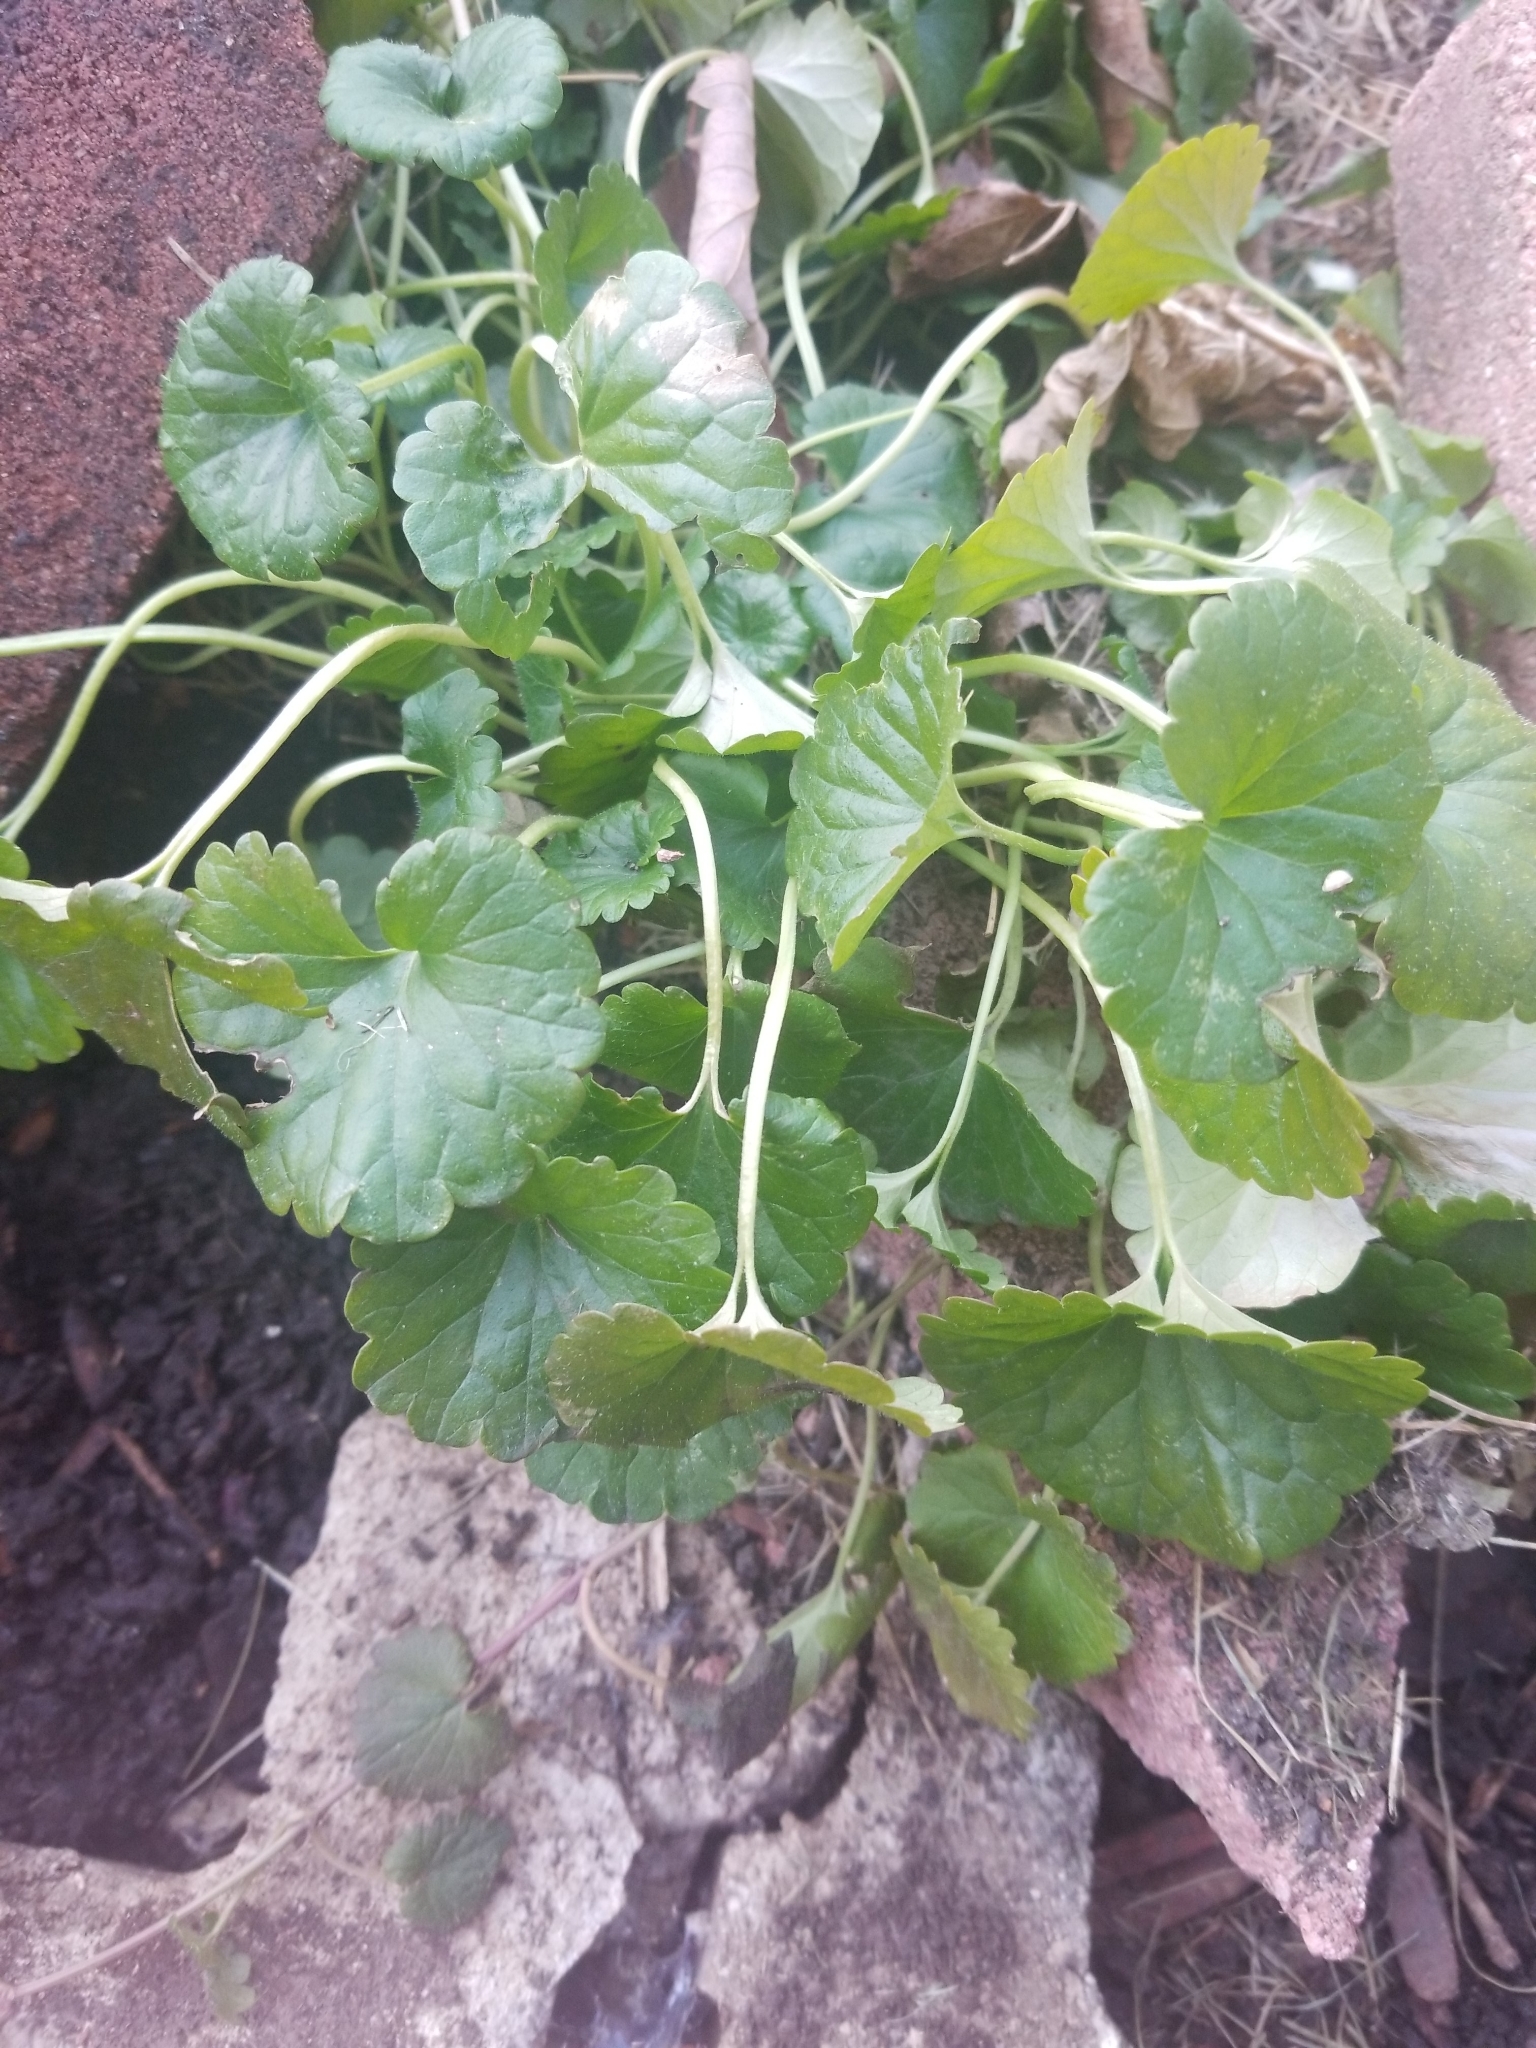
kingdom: Plantae
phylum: Tracheophyta
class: Magnoliopsida
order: Lamiales
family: Lamiaceae
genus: Glechoma
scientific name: Glechoma hederacea
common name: Ground ivy
